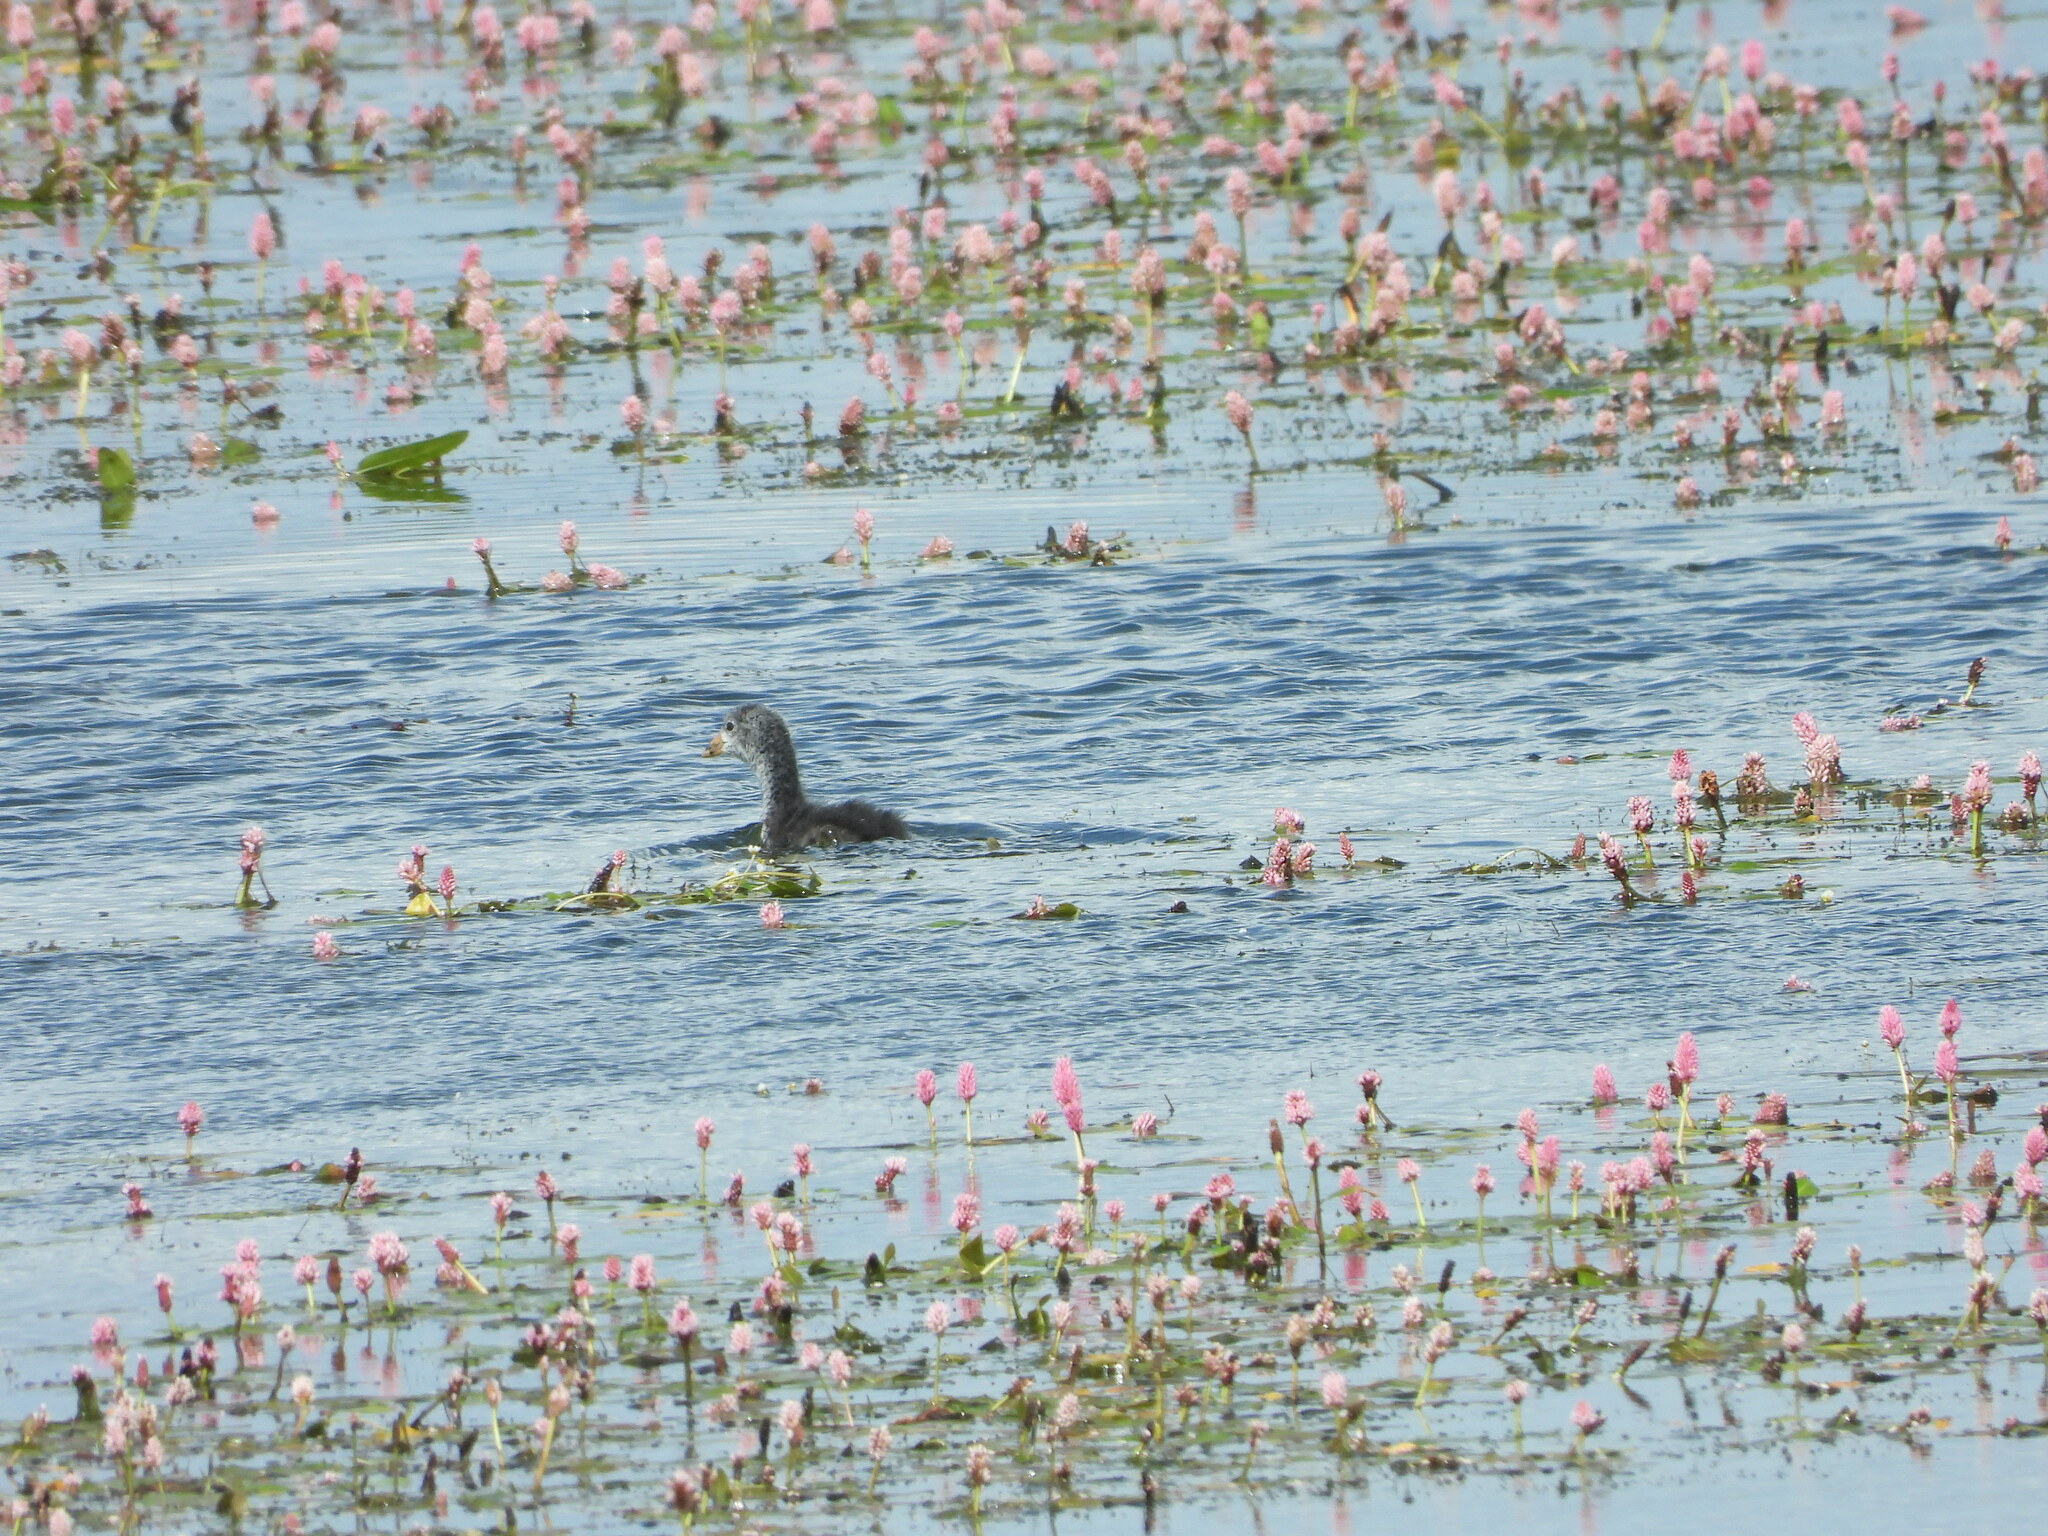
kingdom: Animalia
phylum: Chordata
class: Aves
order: Gruiformes
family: Rallidae
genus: Fulica
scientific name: Fulica americana
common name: American coot
